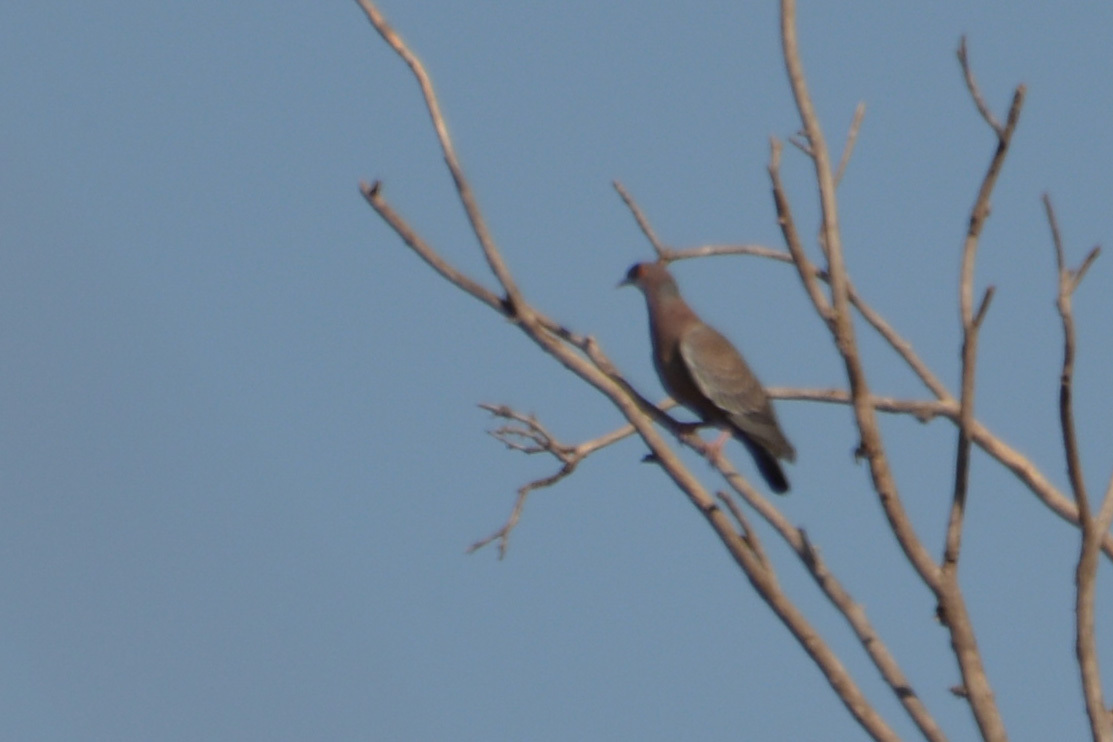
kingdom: Animalia
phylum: Chordata
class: Aves
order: Columbiformes
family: Columbidae
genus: Patagioenas
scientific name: Patagioenas picazuro
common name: Picazuro pigeon
